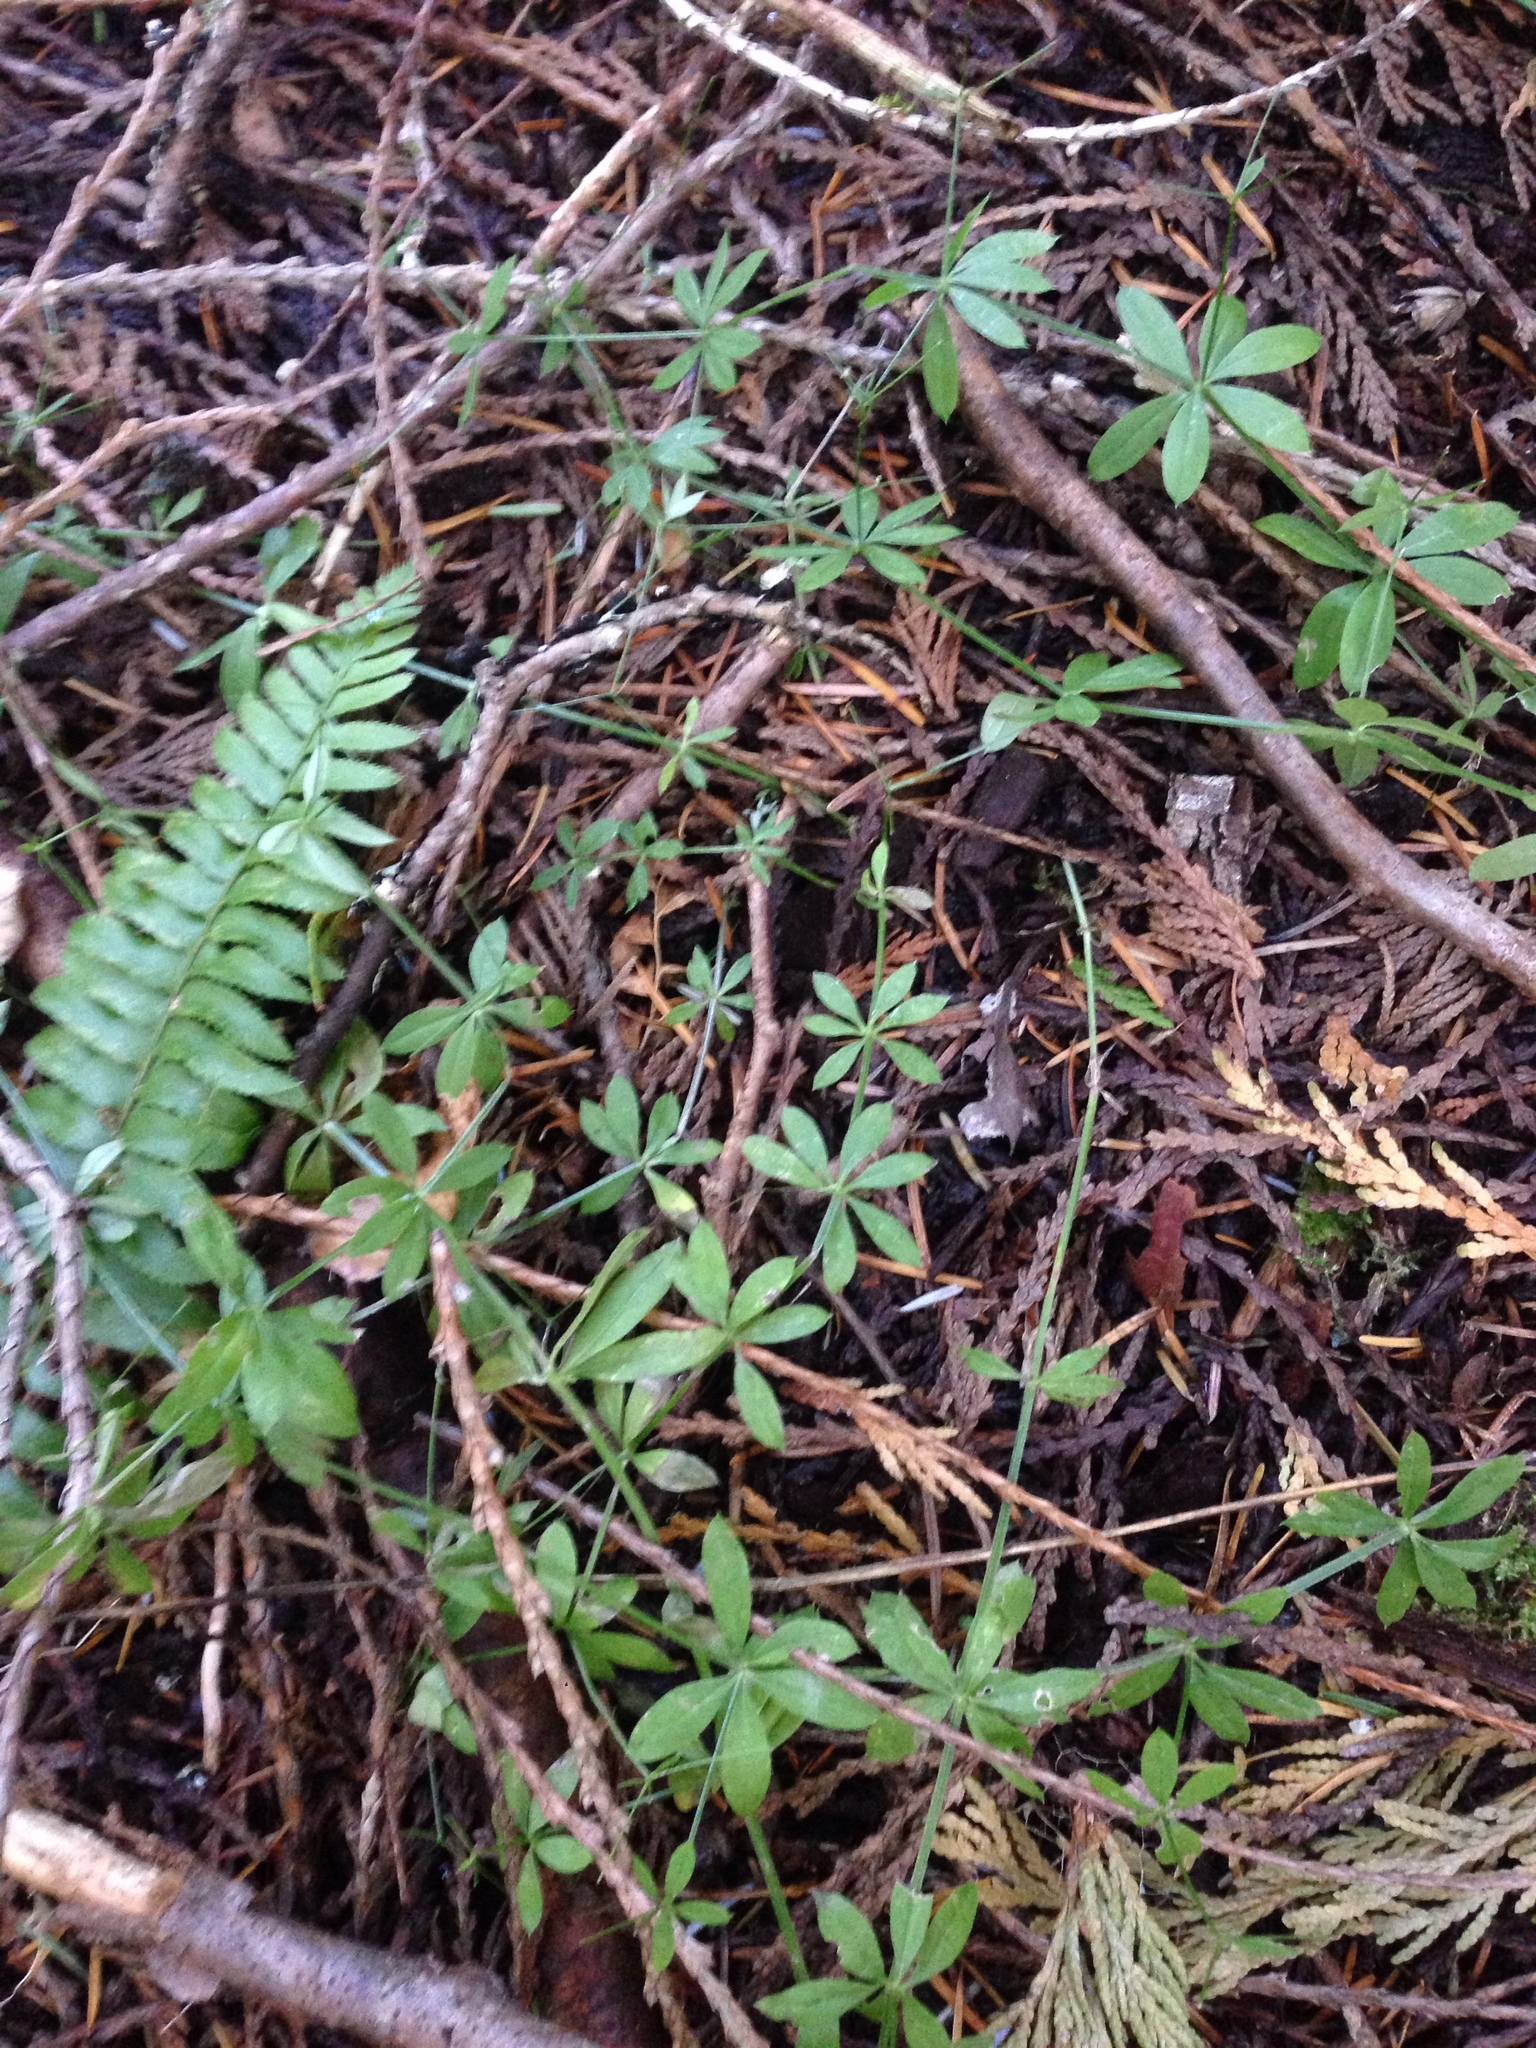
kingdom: Plantae
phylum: Tracheophyta
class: Magnoliopsida
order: Gentianales
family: Rubiaceae
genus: Galium
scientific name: Galium triflorum
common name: Fragrant bedstraw
